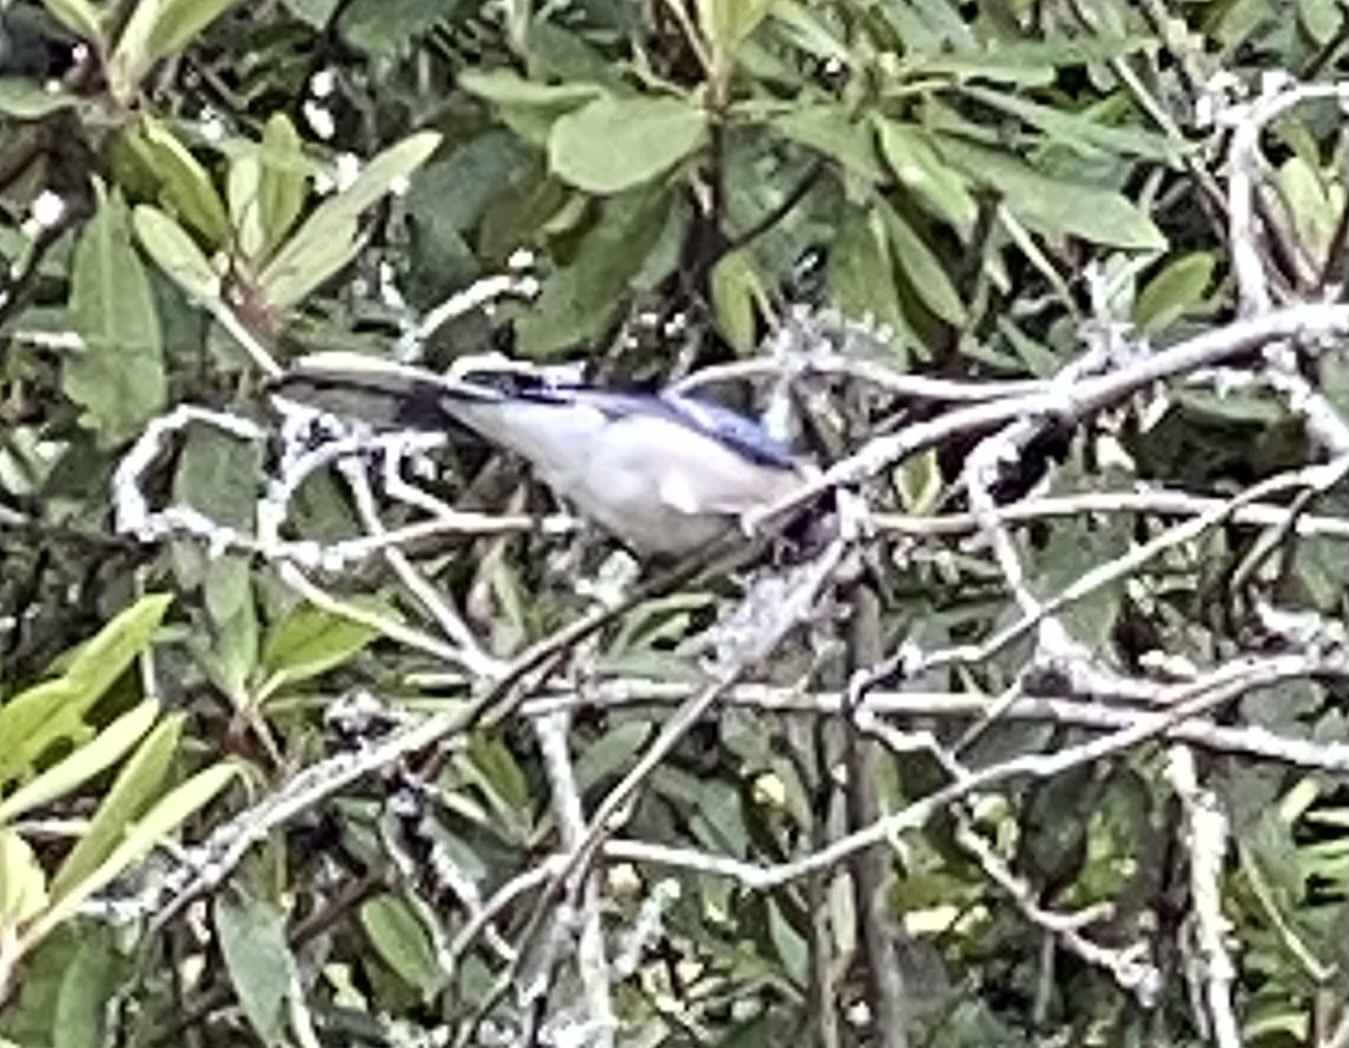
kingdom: Animalia
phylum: Chordata
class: Aves
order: Passeriformes
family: Corvidae
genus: Cyanocitta
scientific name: Cyanocitta cristata
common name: Blue jay
